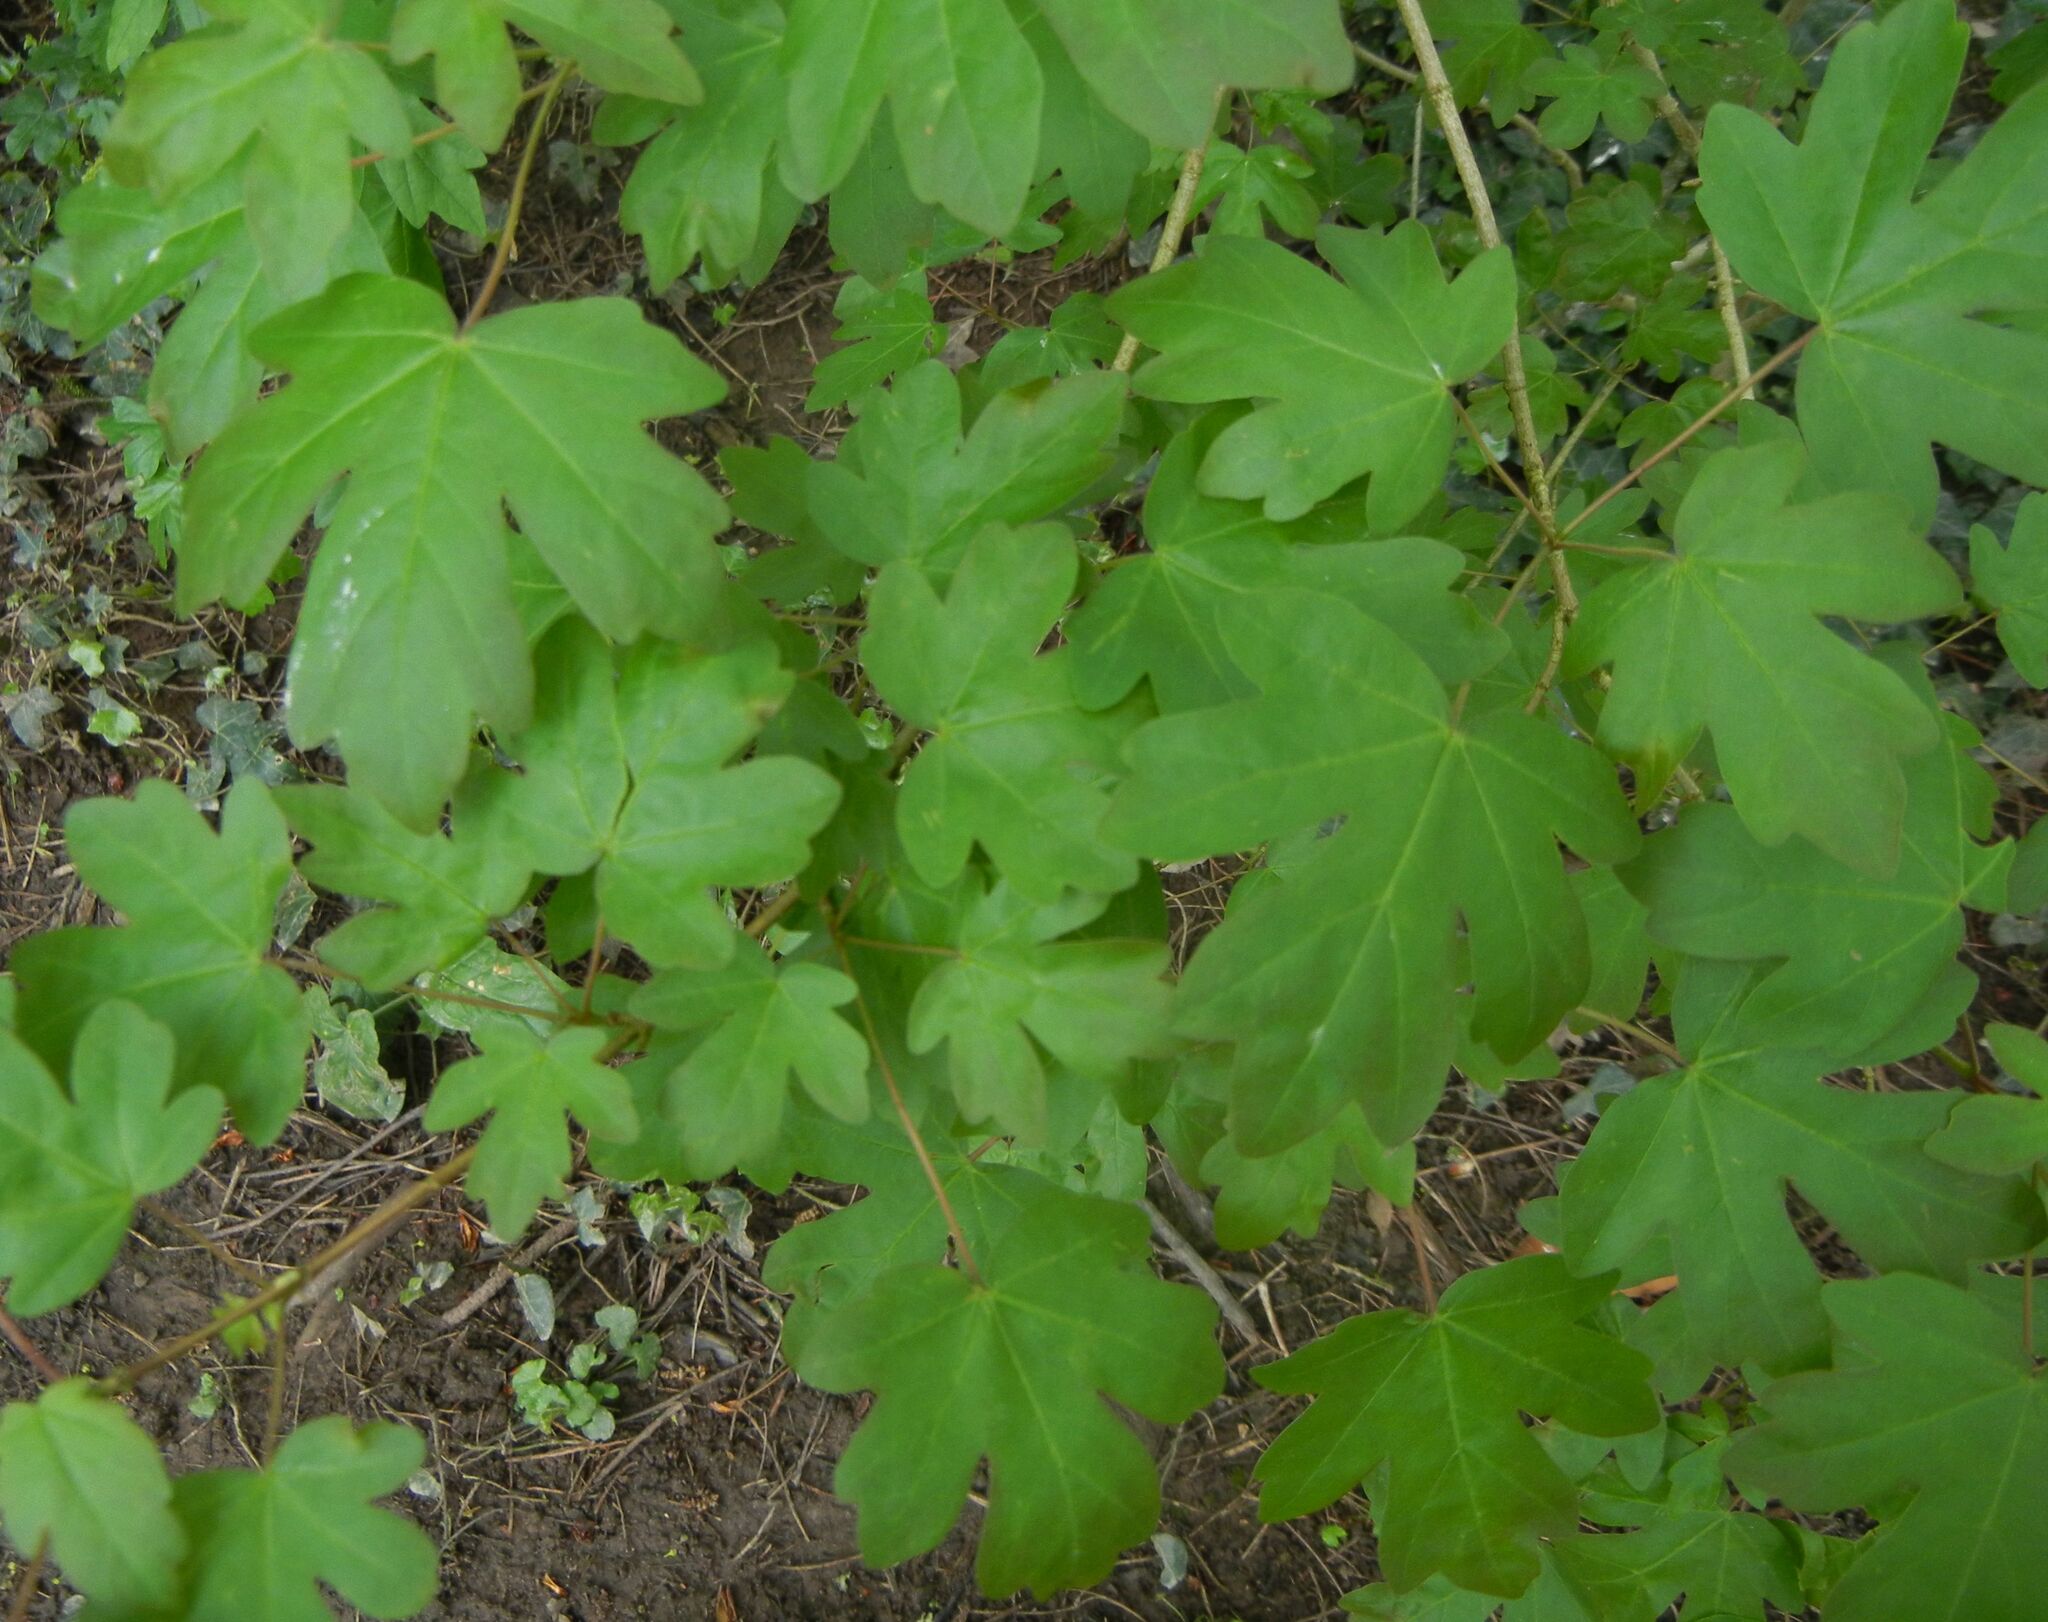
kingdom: Plantae
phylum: Tracheophyta
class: Magnoliopsida
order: Sapindales
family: Sapindaceae
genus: Acer
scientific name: Acer campestre
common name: Field maple
